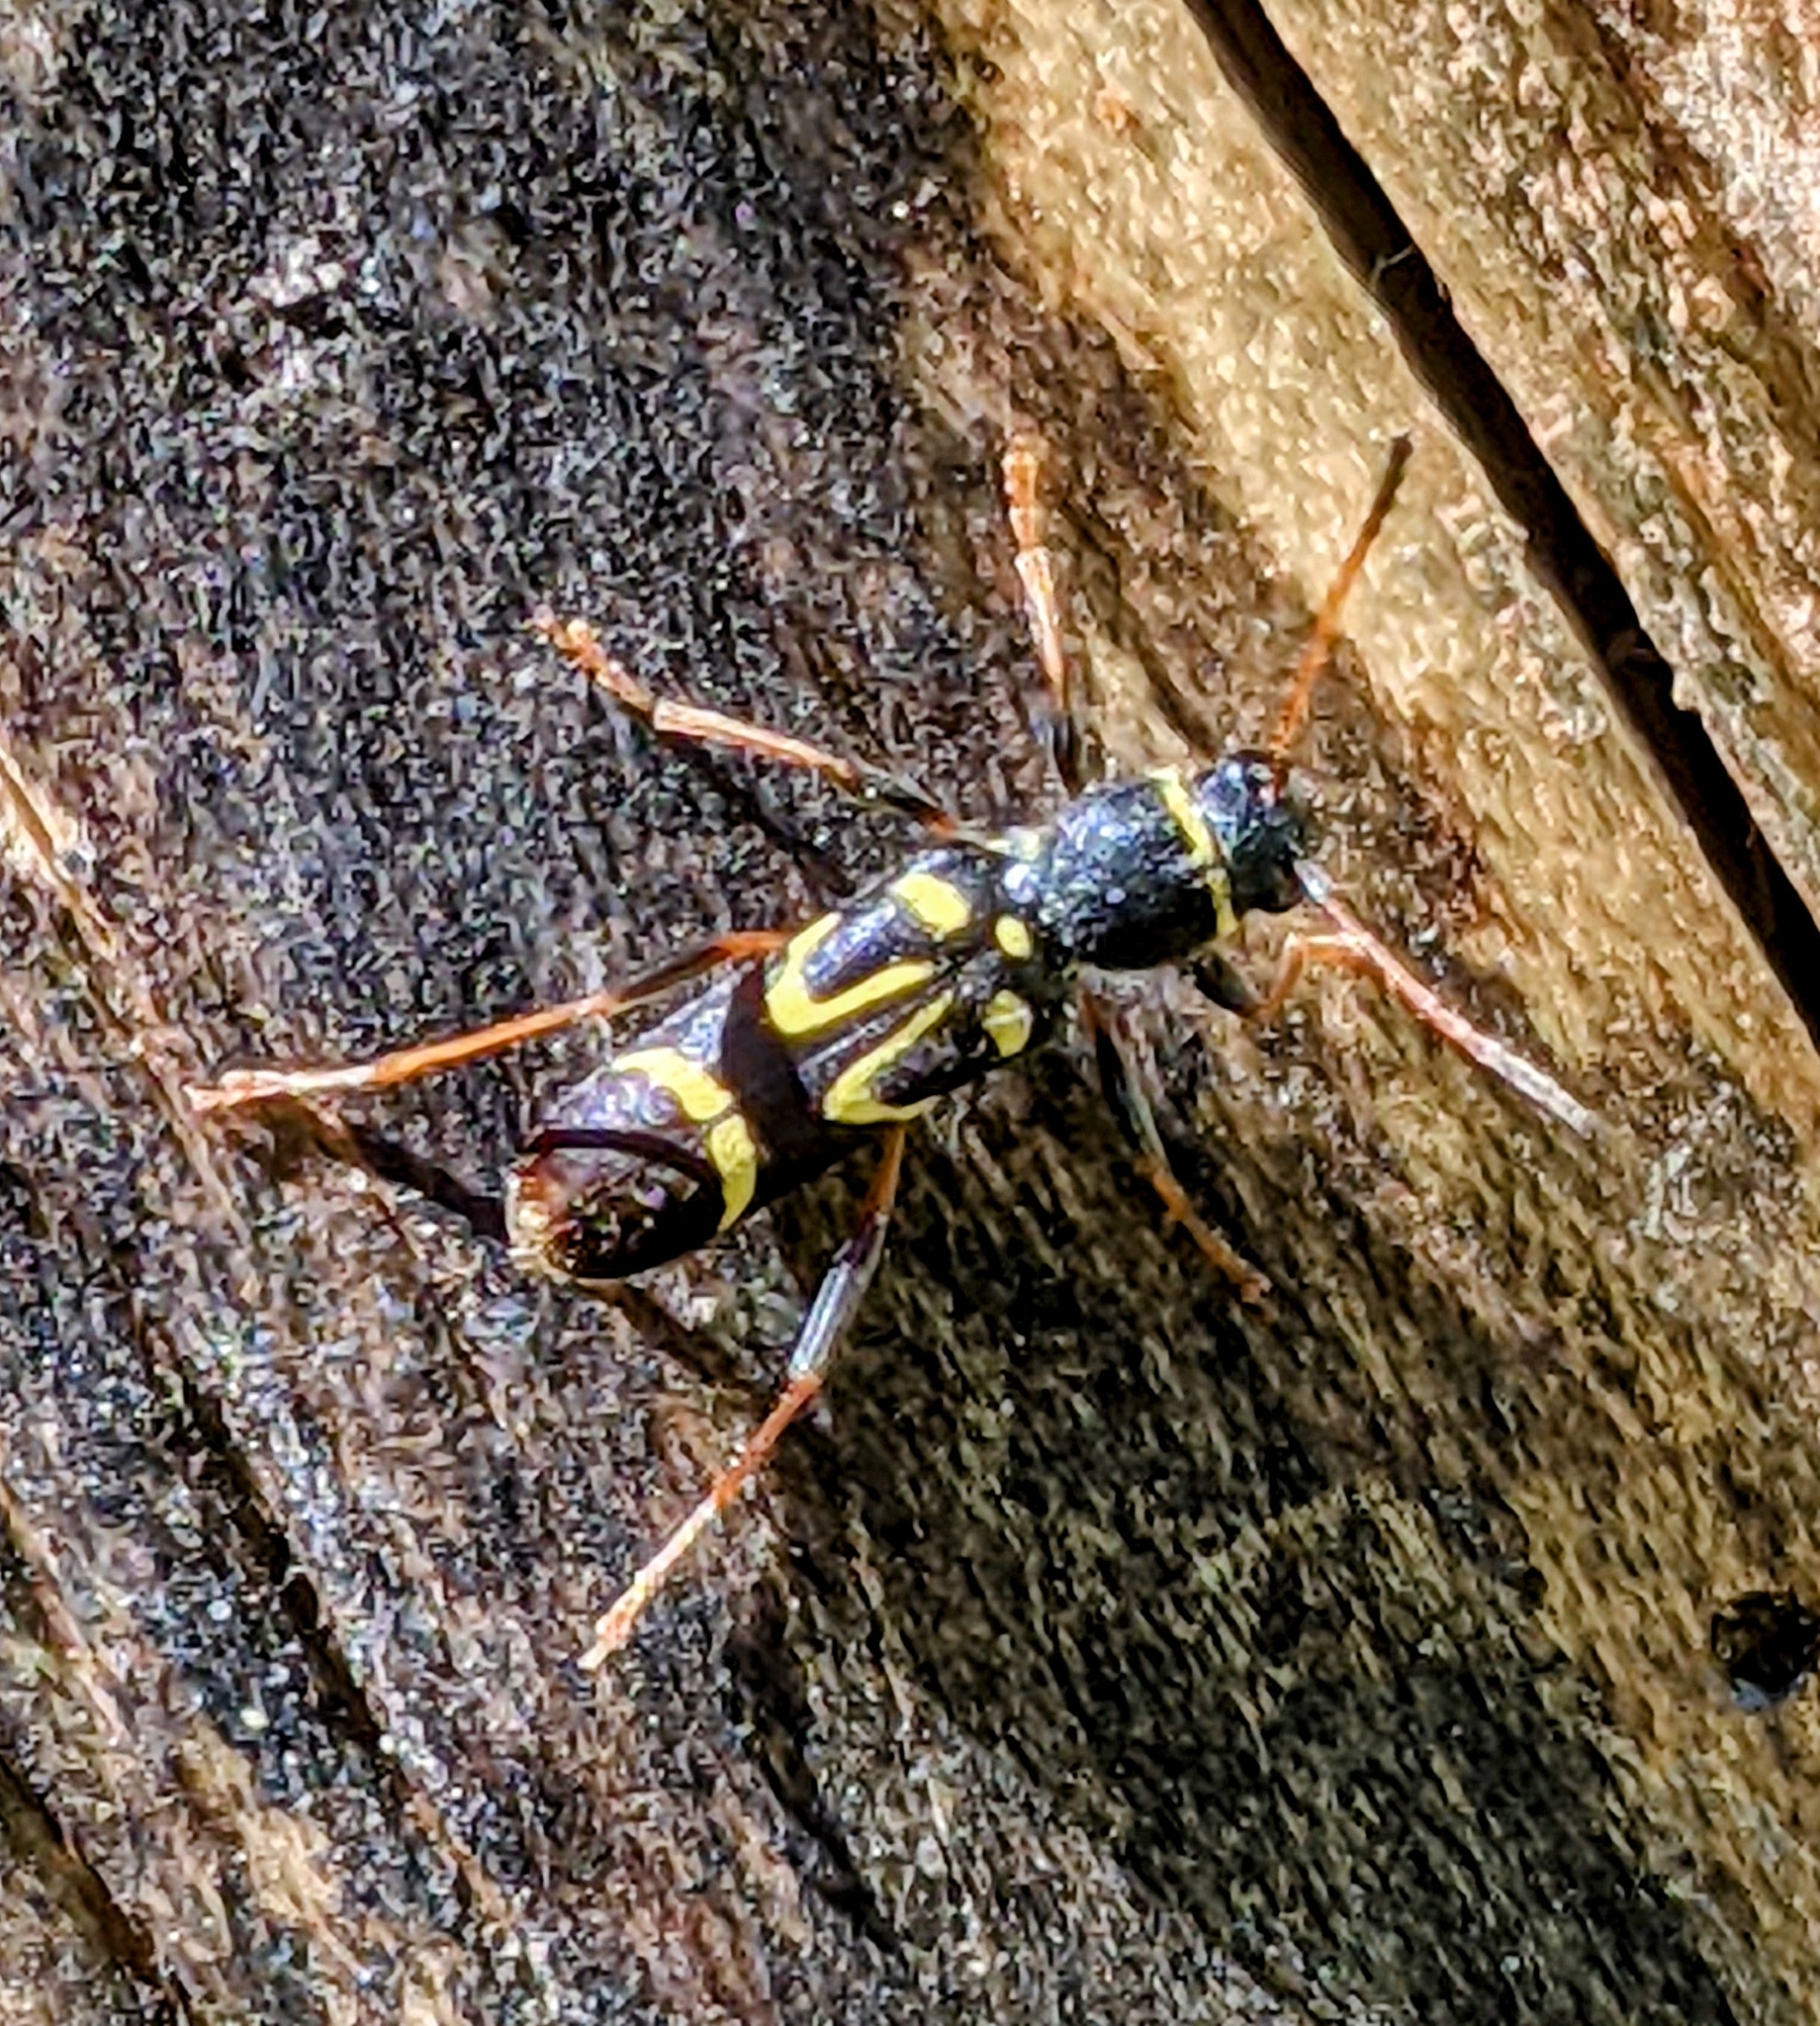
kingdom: Animalia
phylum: Arthropoda
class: Insecta
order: Coleoptera
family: Cerambycidae
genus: Clytus
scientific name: Clytus ruricola
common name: Round-necked longhorn beetle
